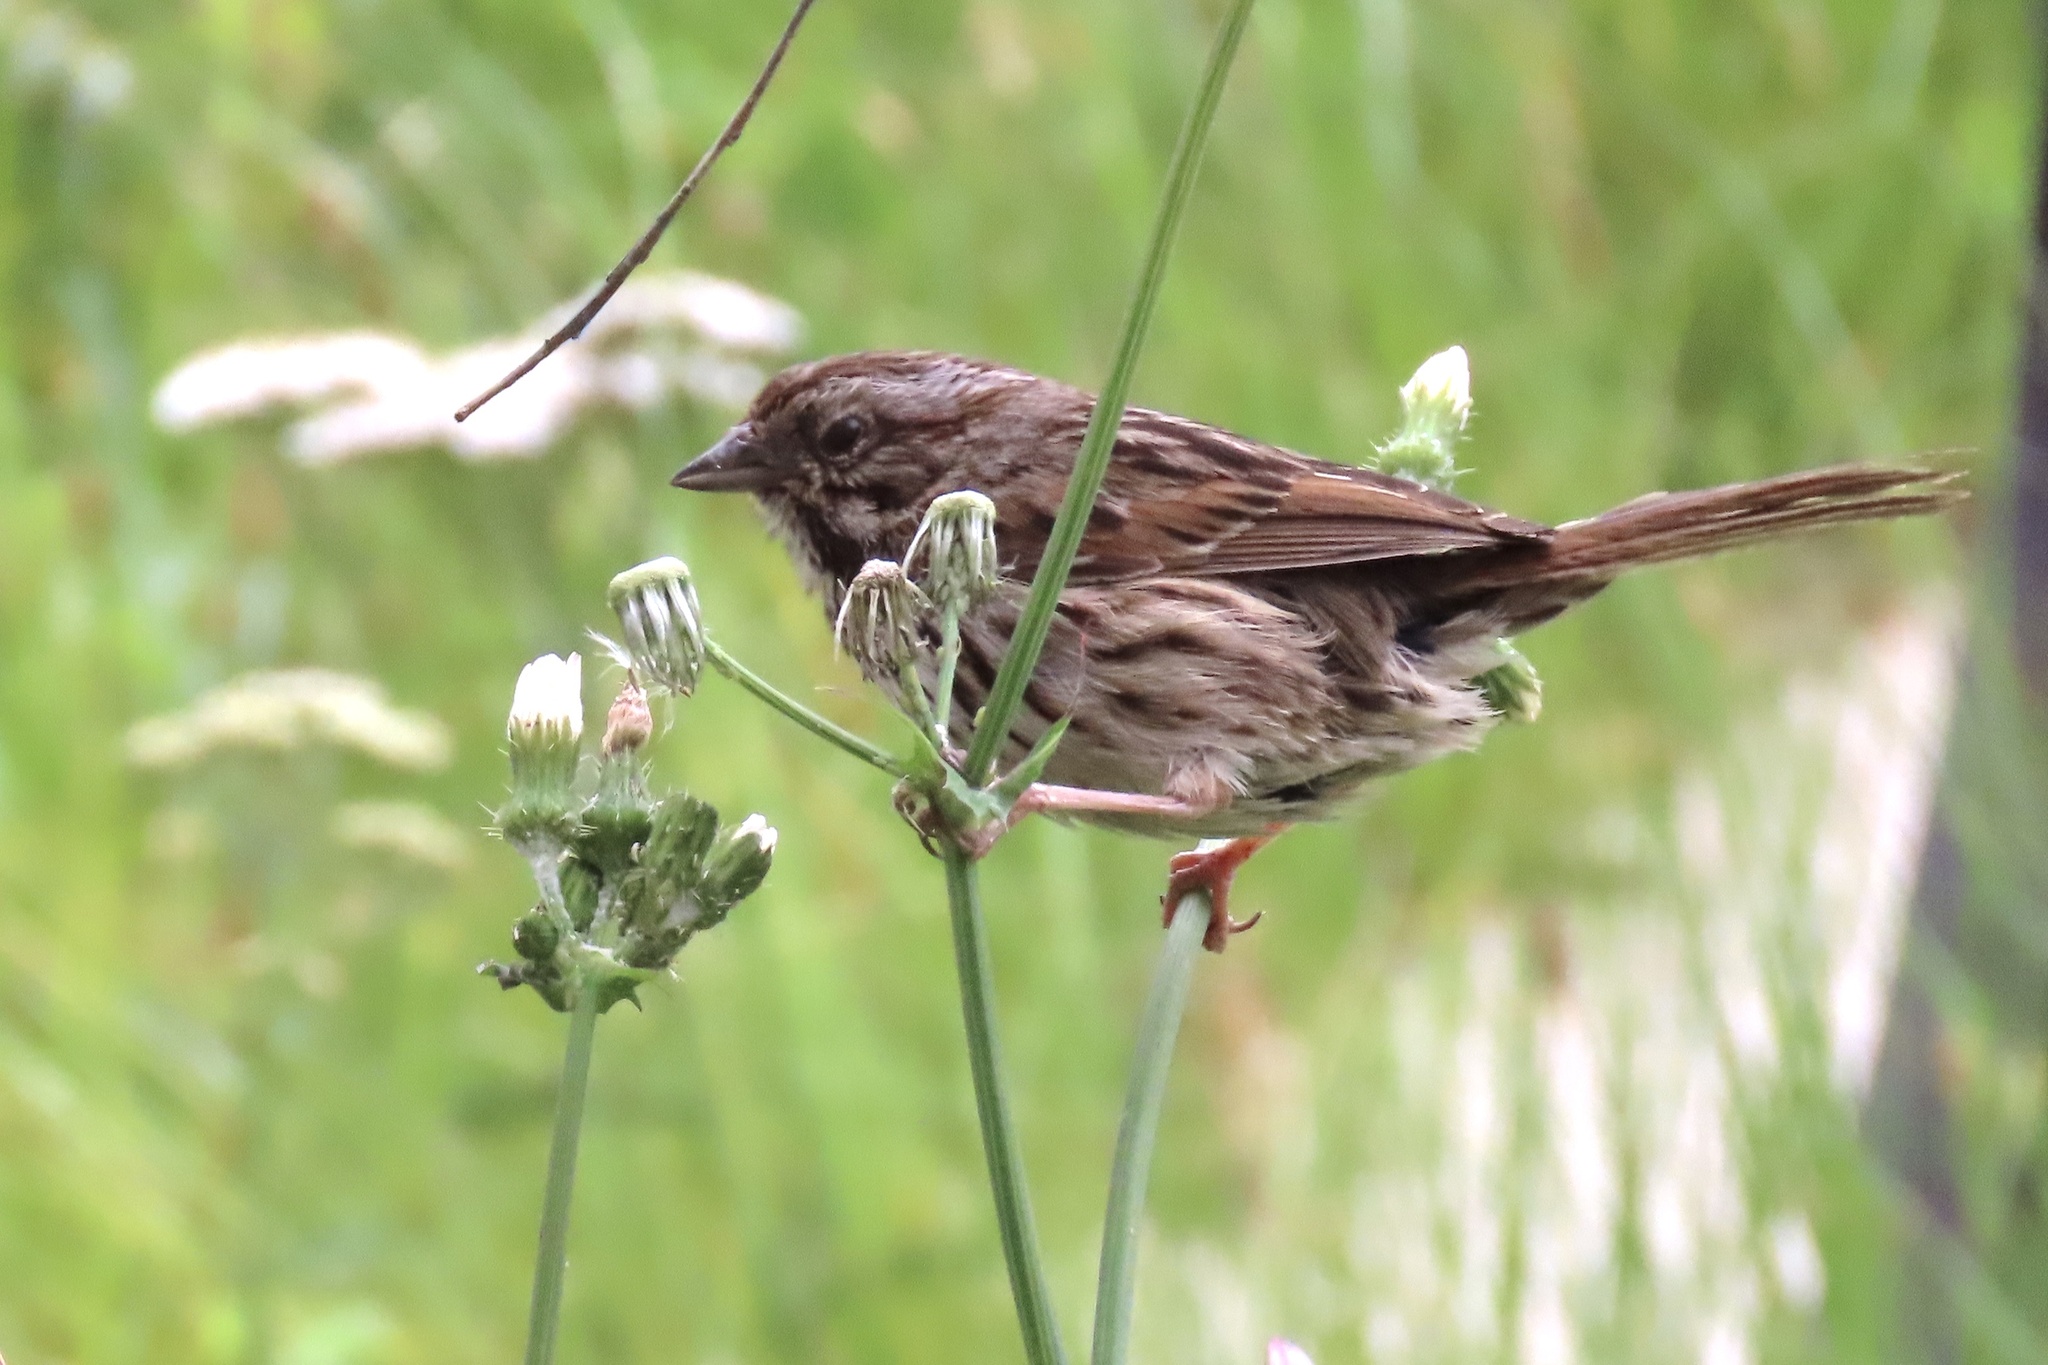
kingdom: Animalia
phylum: Chordata
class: Aves
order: Passeriformes
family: Passerellidae
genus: Melospiza
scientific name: Melospiza melodia
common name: Song sparrow
